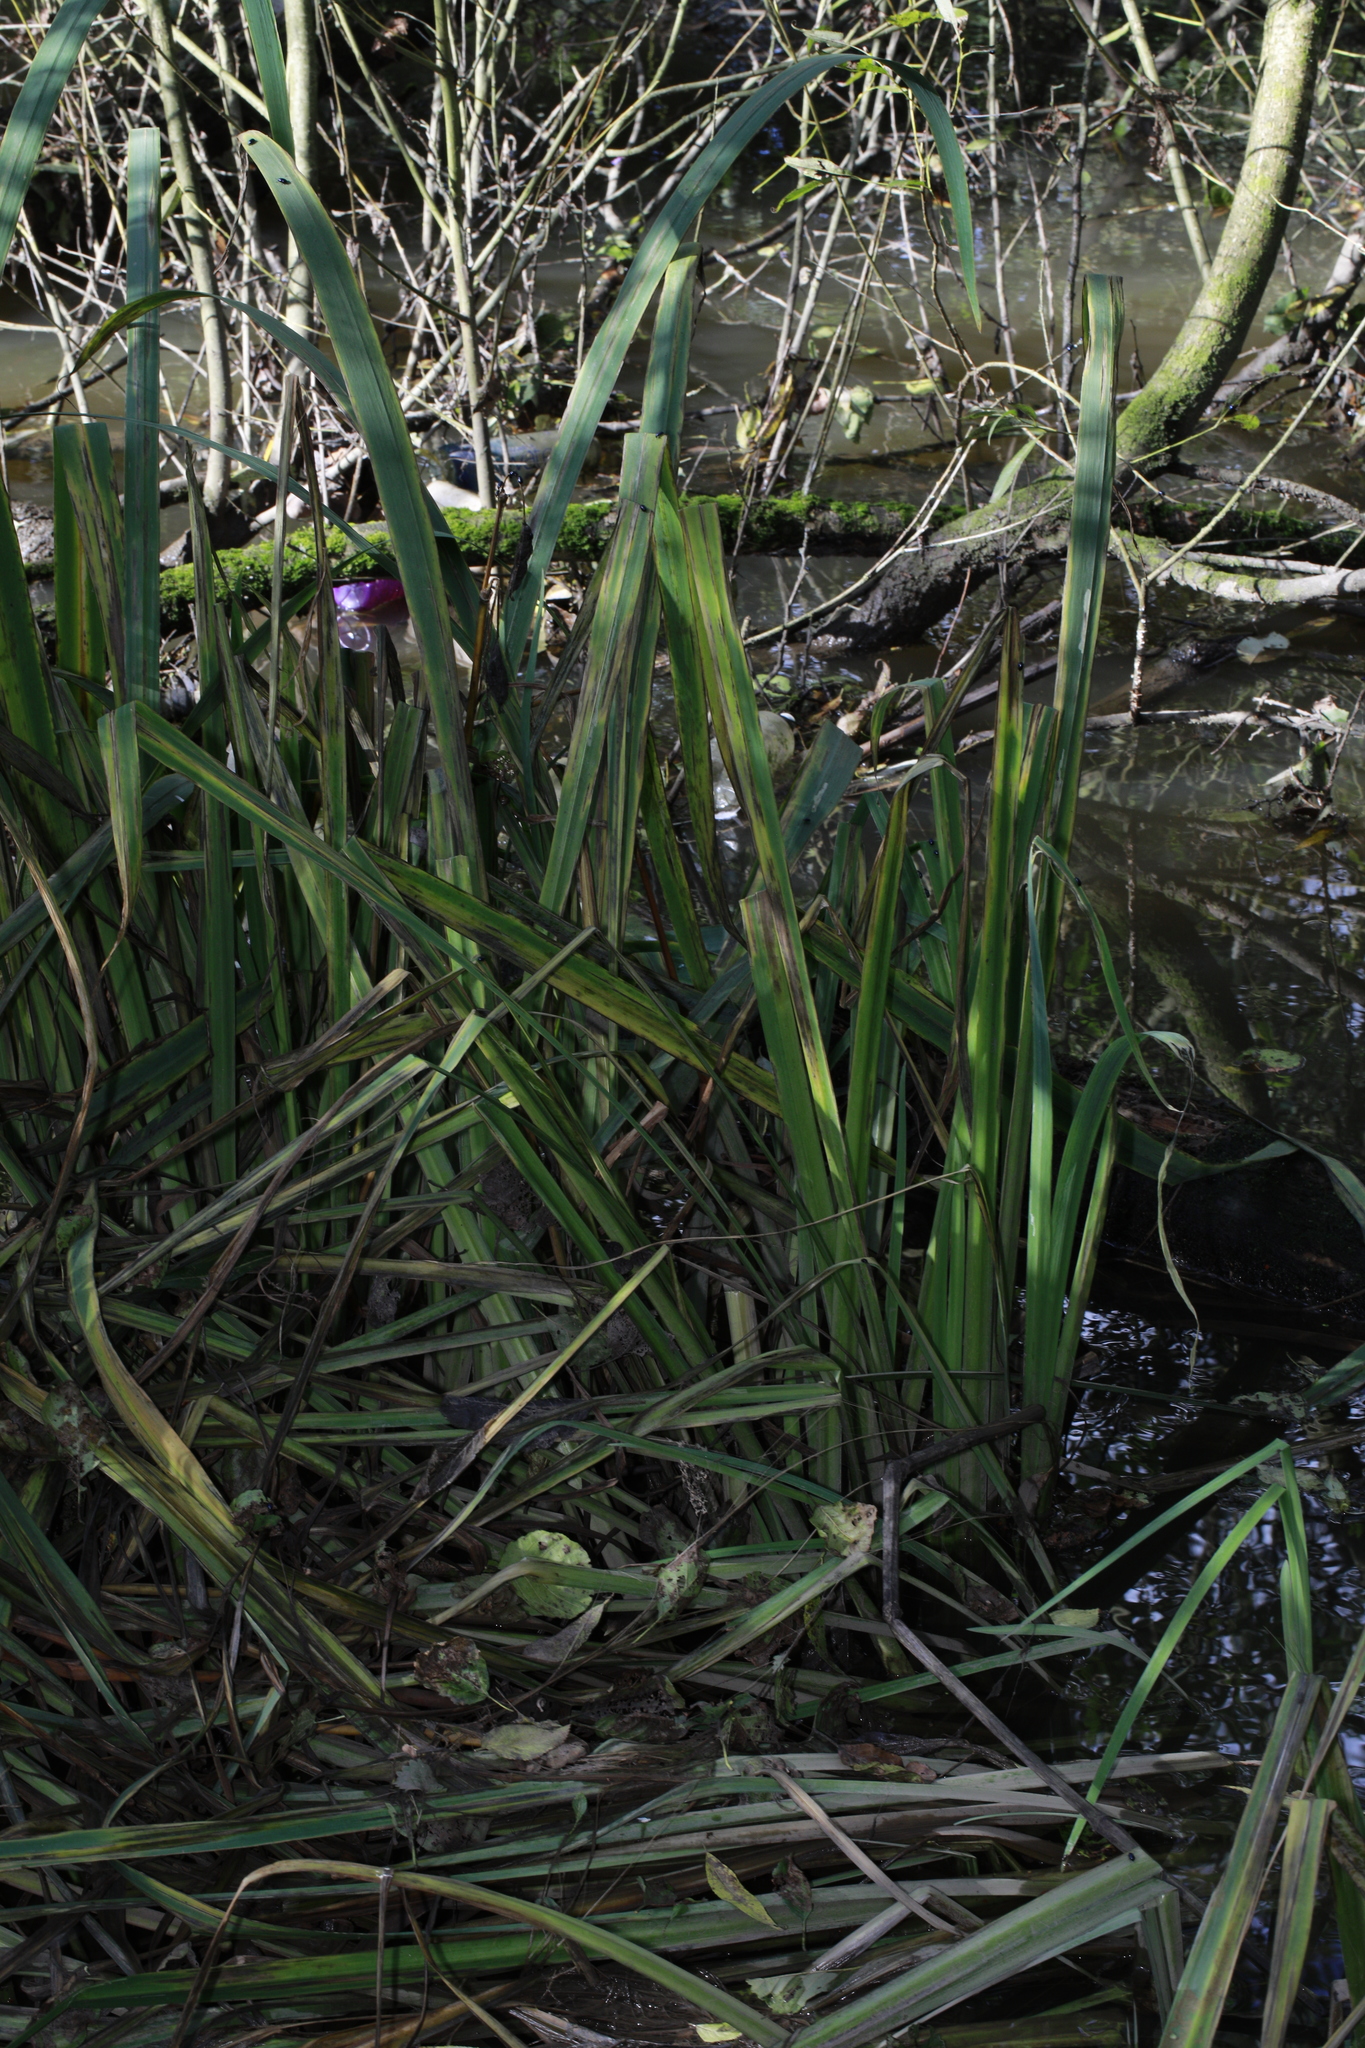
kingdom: Plantae
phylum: Tracheophyta
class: Liliopsida
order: Asparagales
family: Iridaceae
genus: Iris
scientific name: Iris pseudacorus
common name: Yellow flag
